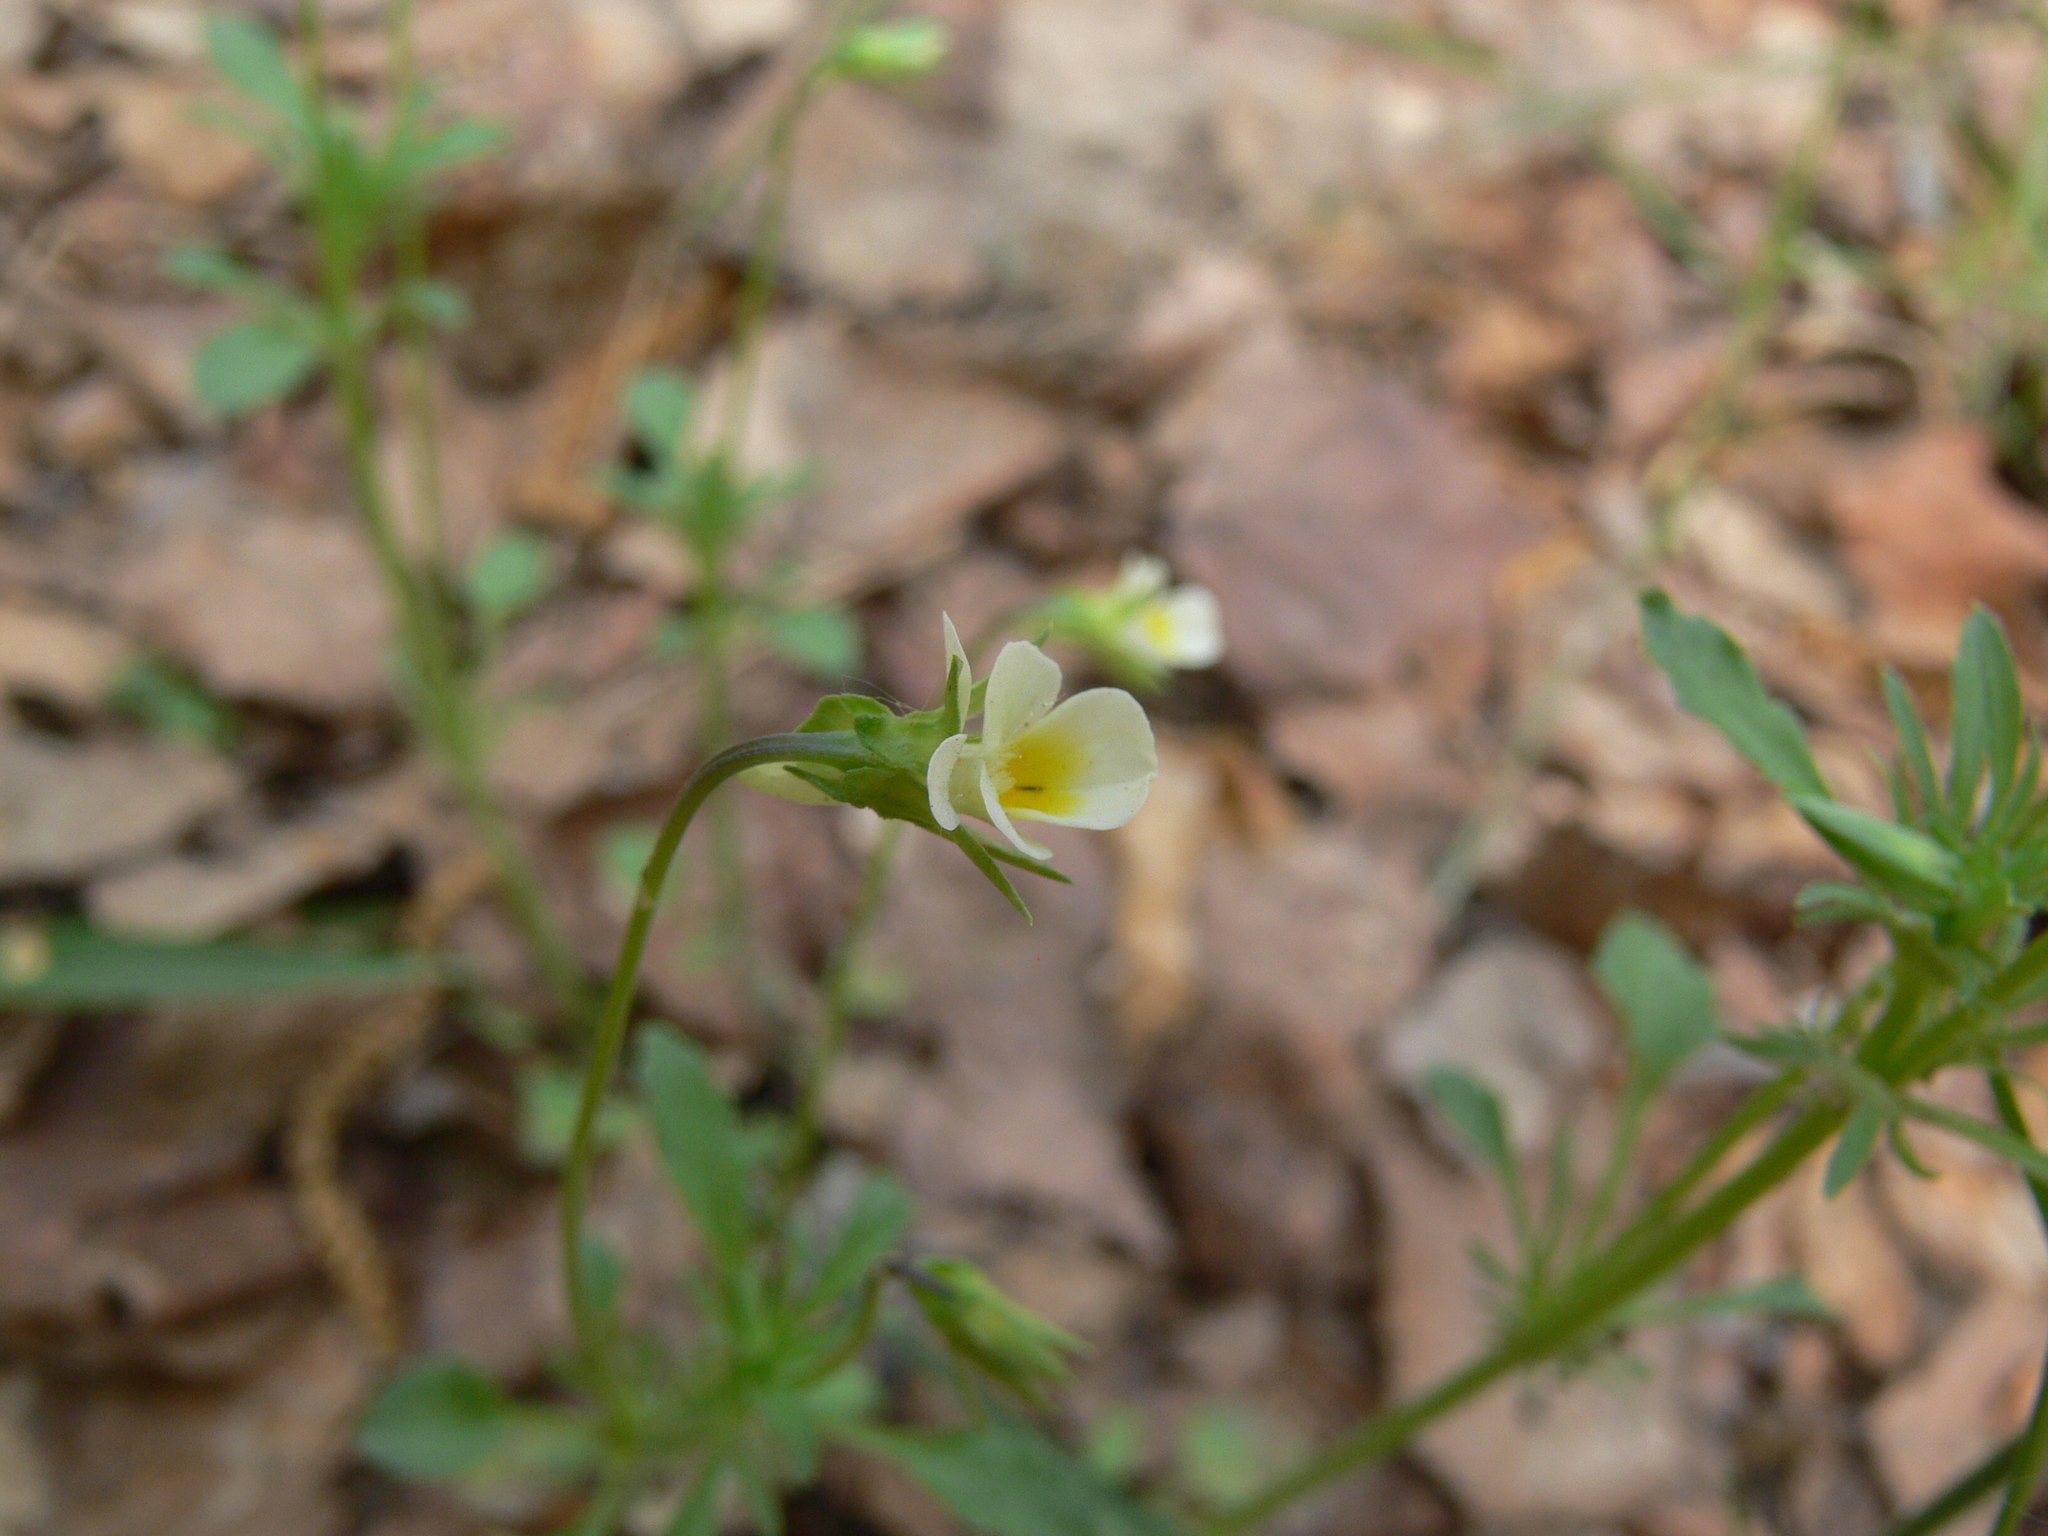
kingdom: Plantae
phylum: Tracheophyta
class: Magnoliopsida
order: Malpighiales
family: Violaceae
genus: Viola
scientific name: Viola arvensis
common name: Field pansy
